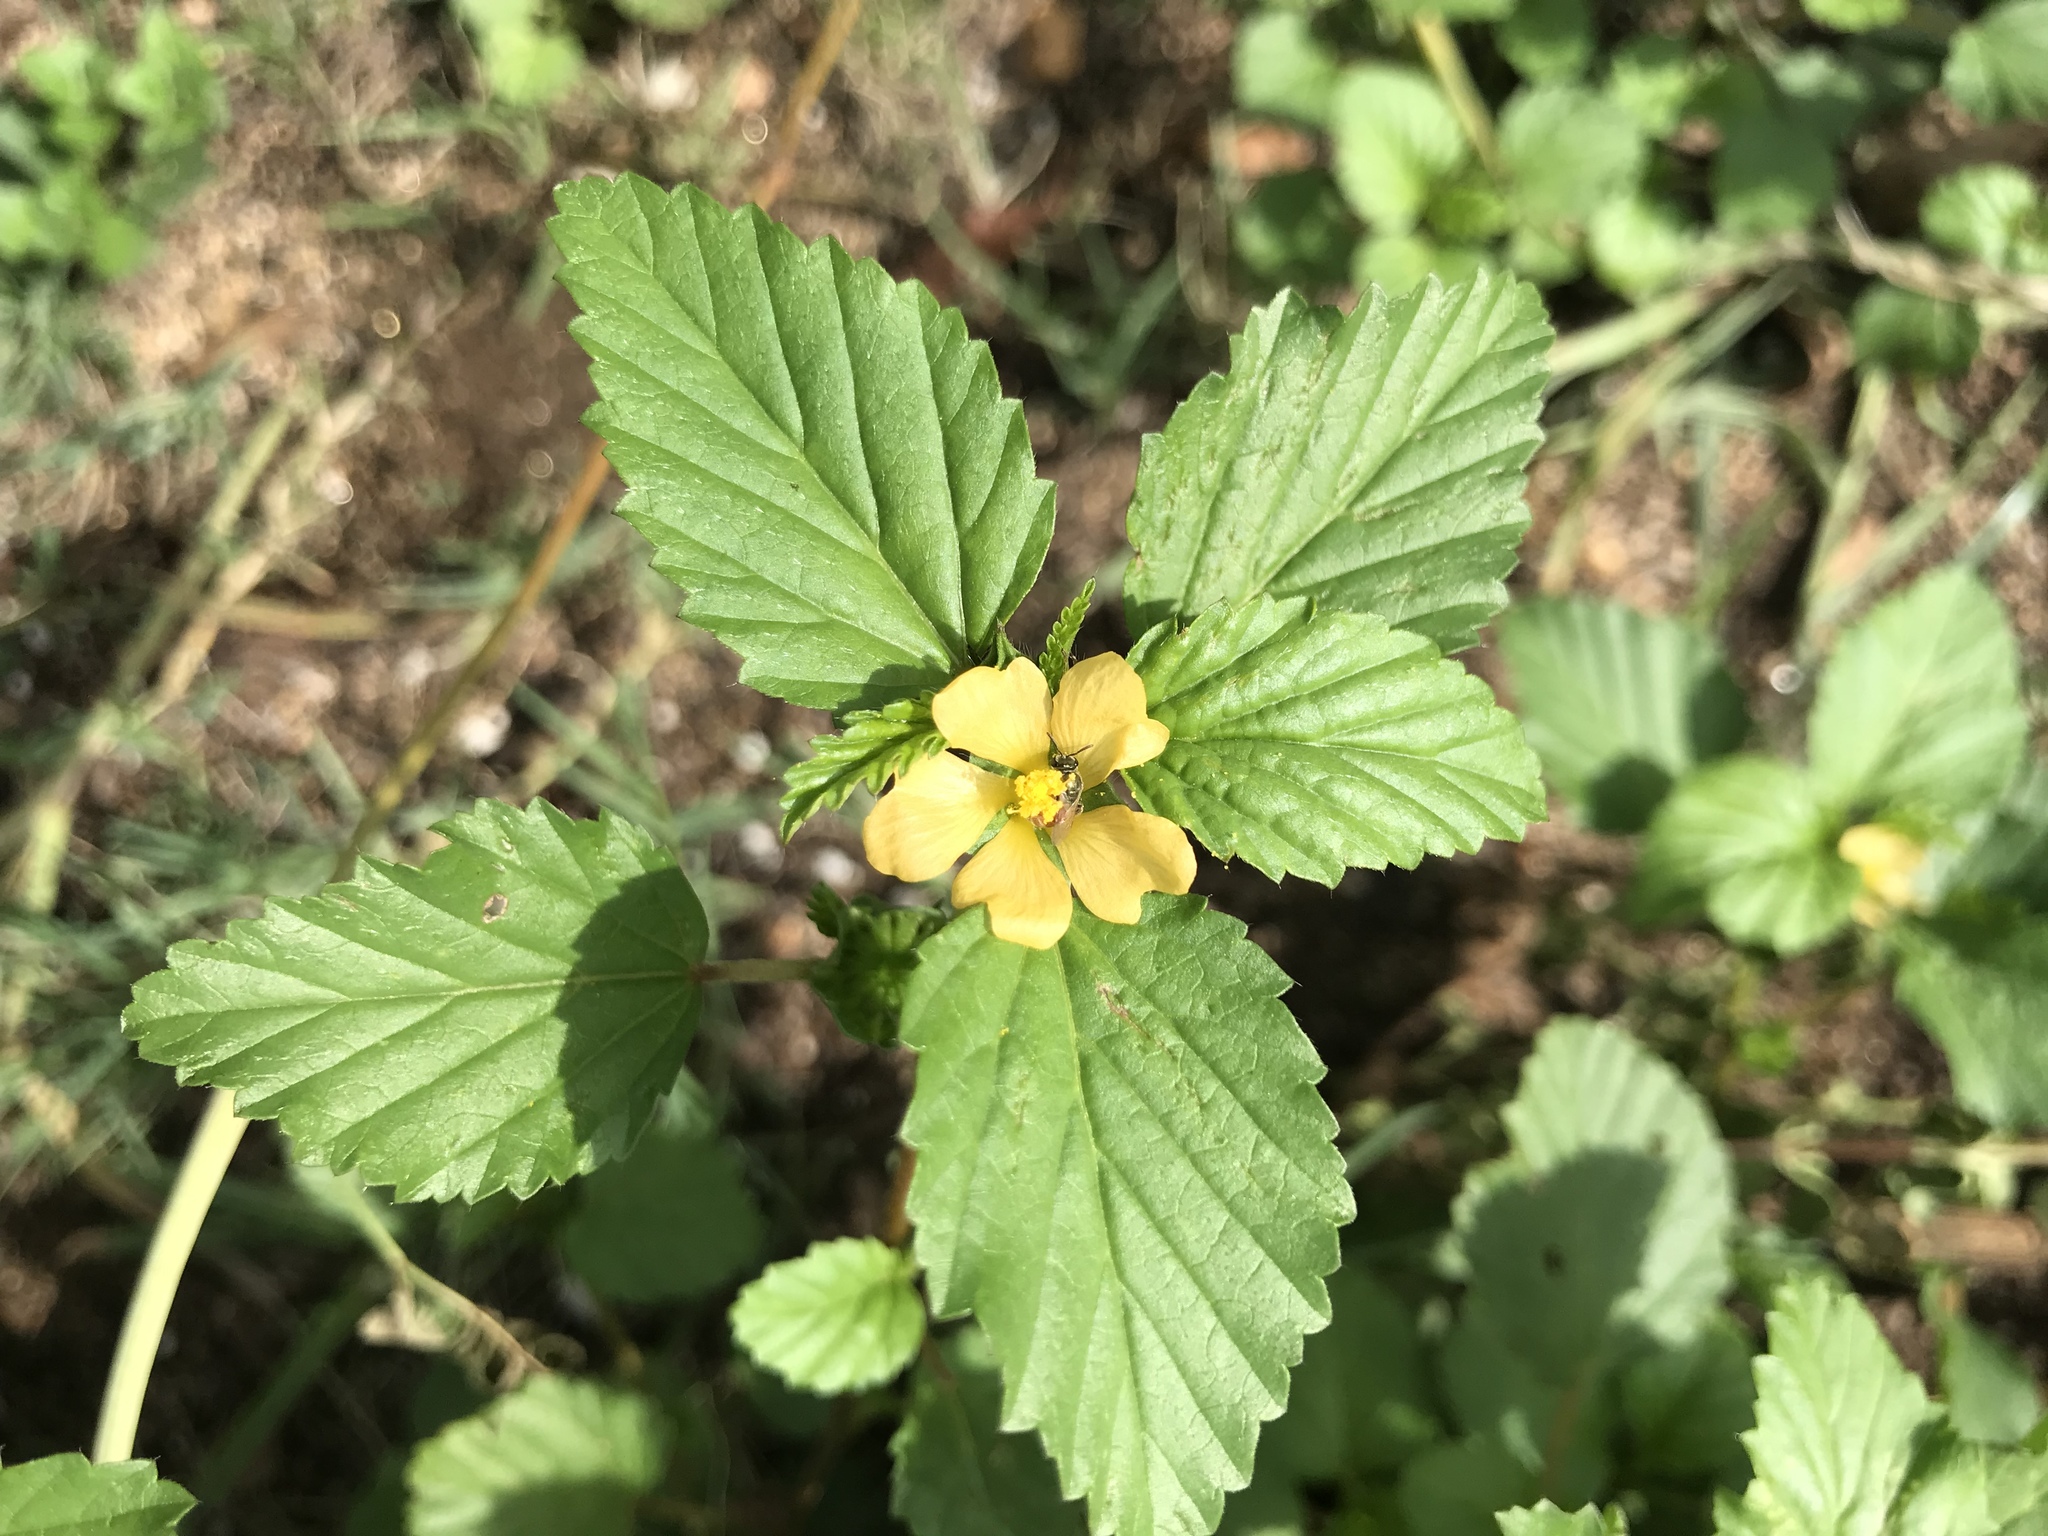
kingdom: Plantae
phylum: Tracheophyta
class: Magnoliopsida
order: Malvales
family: Malvaceae
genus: Malvastrum
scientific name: Malvastrum coromandelianum
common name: Threelobe false mallow
